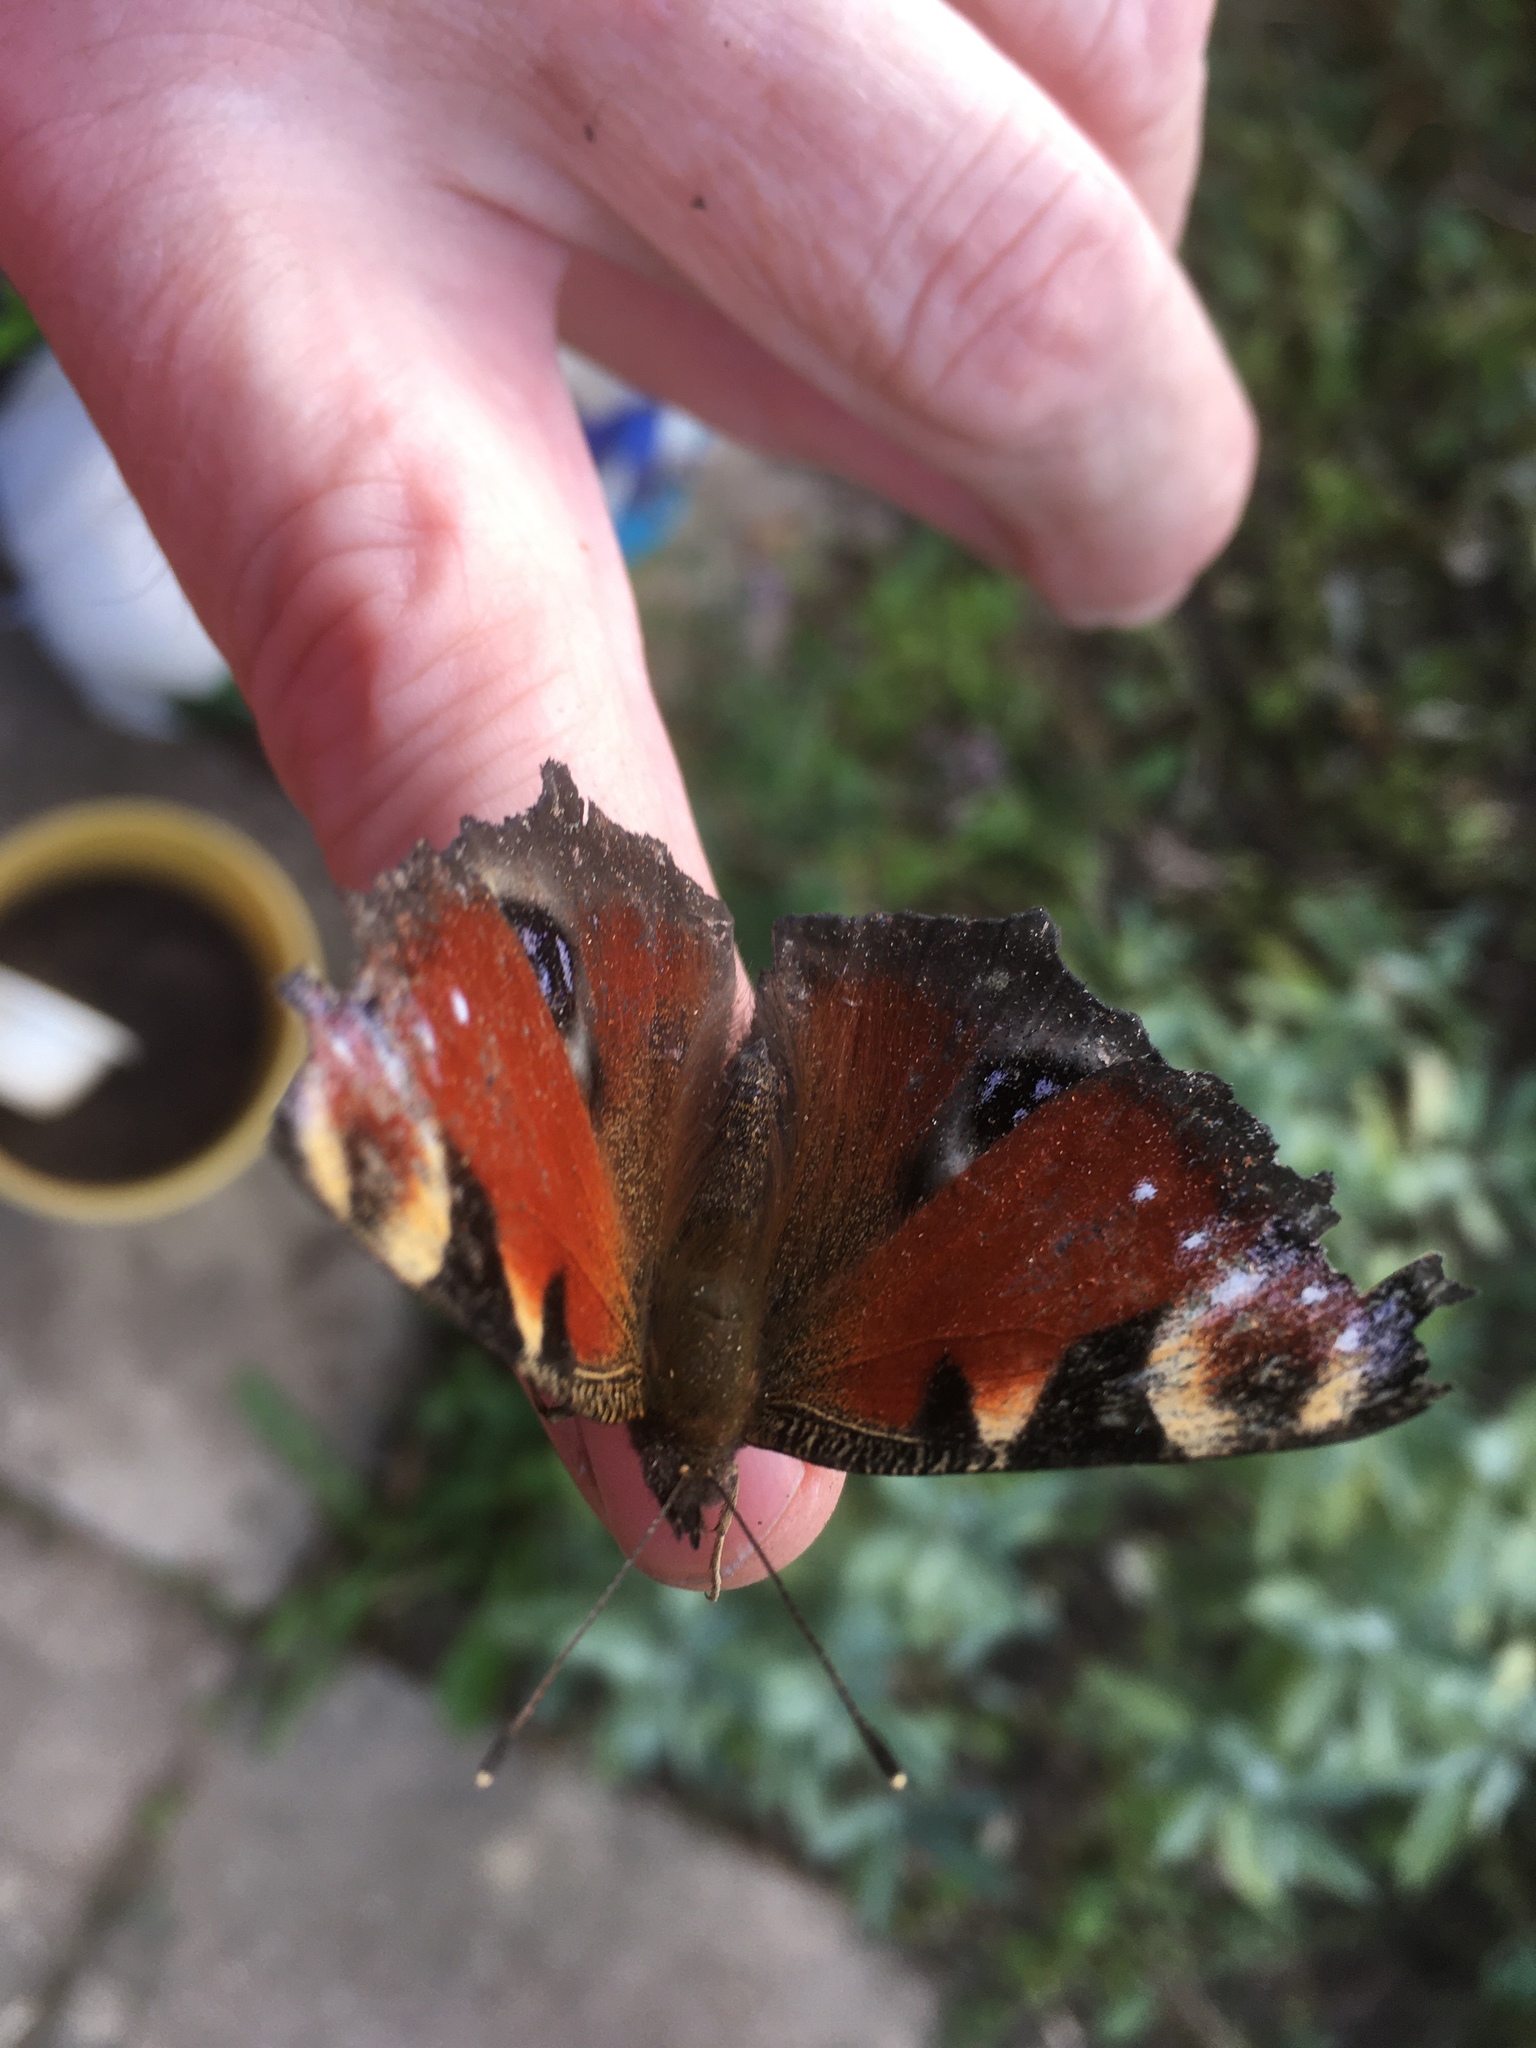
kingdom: Animalia
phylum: Arthropoda
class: Insecta
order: Lepidoptera
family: Nymphalidae
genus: Aglais
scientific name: Aglais io
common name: Peacock
